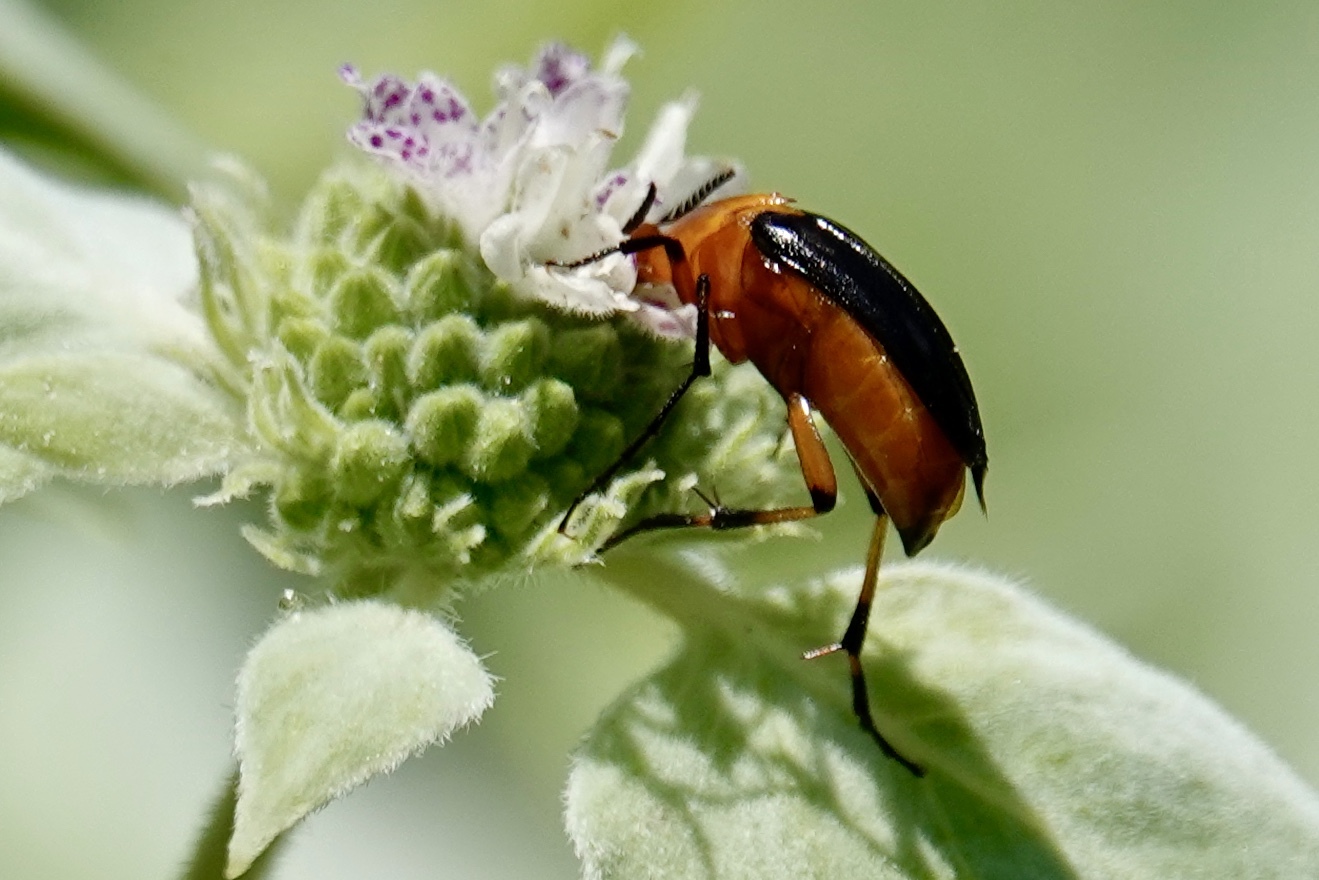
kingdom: Animalia
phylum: Arthropoda
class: Insecta
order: Coleoptera
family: Ripiphoridae
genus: Macrosiagon
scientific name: Macrosiagon limbatum
